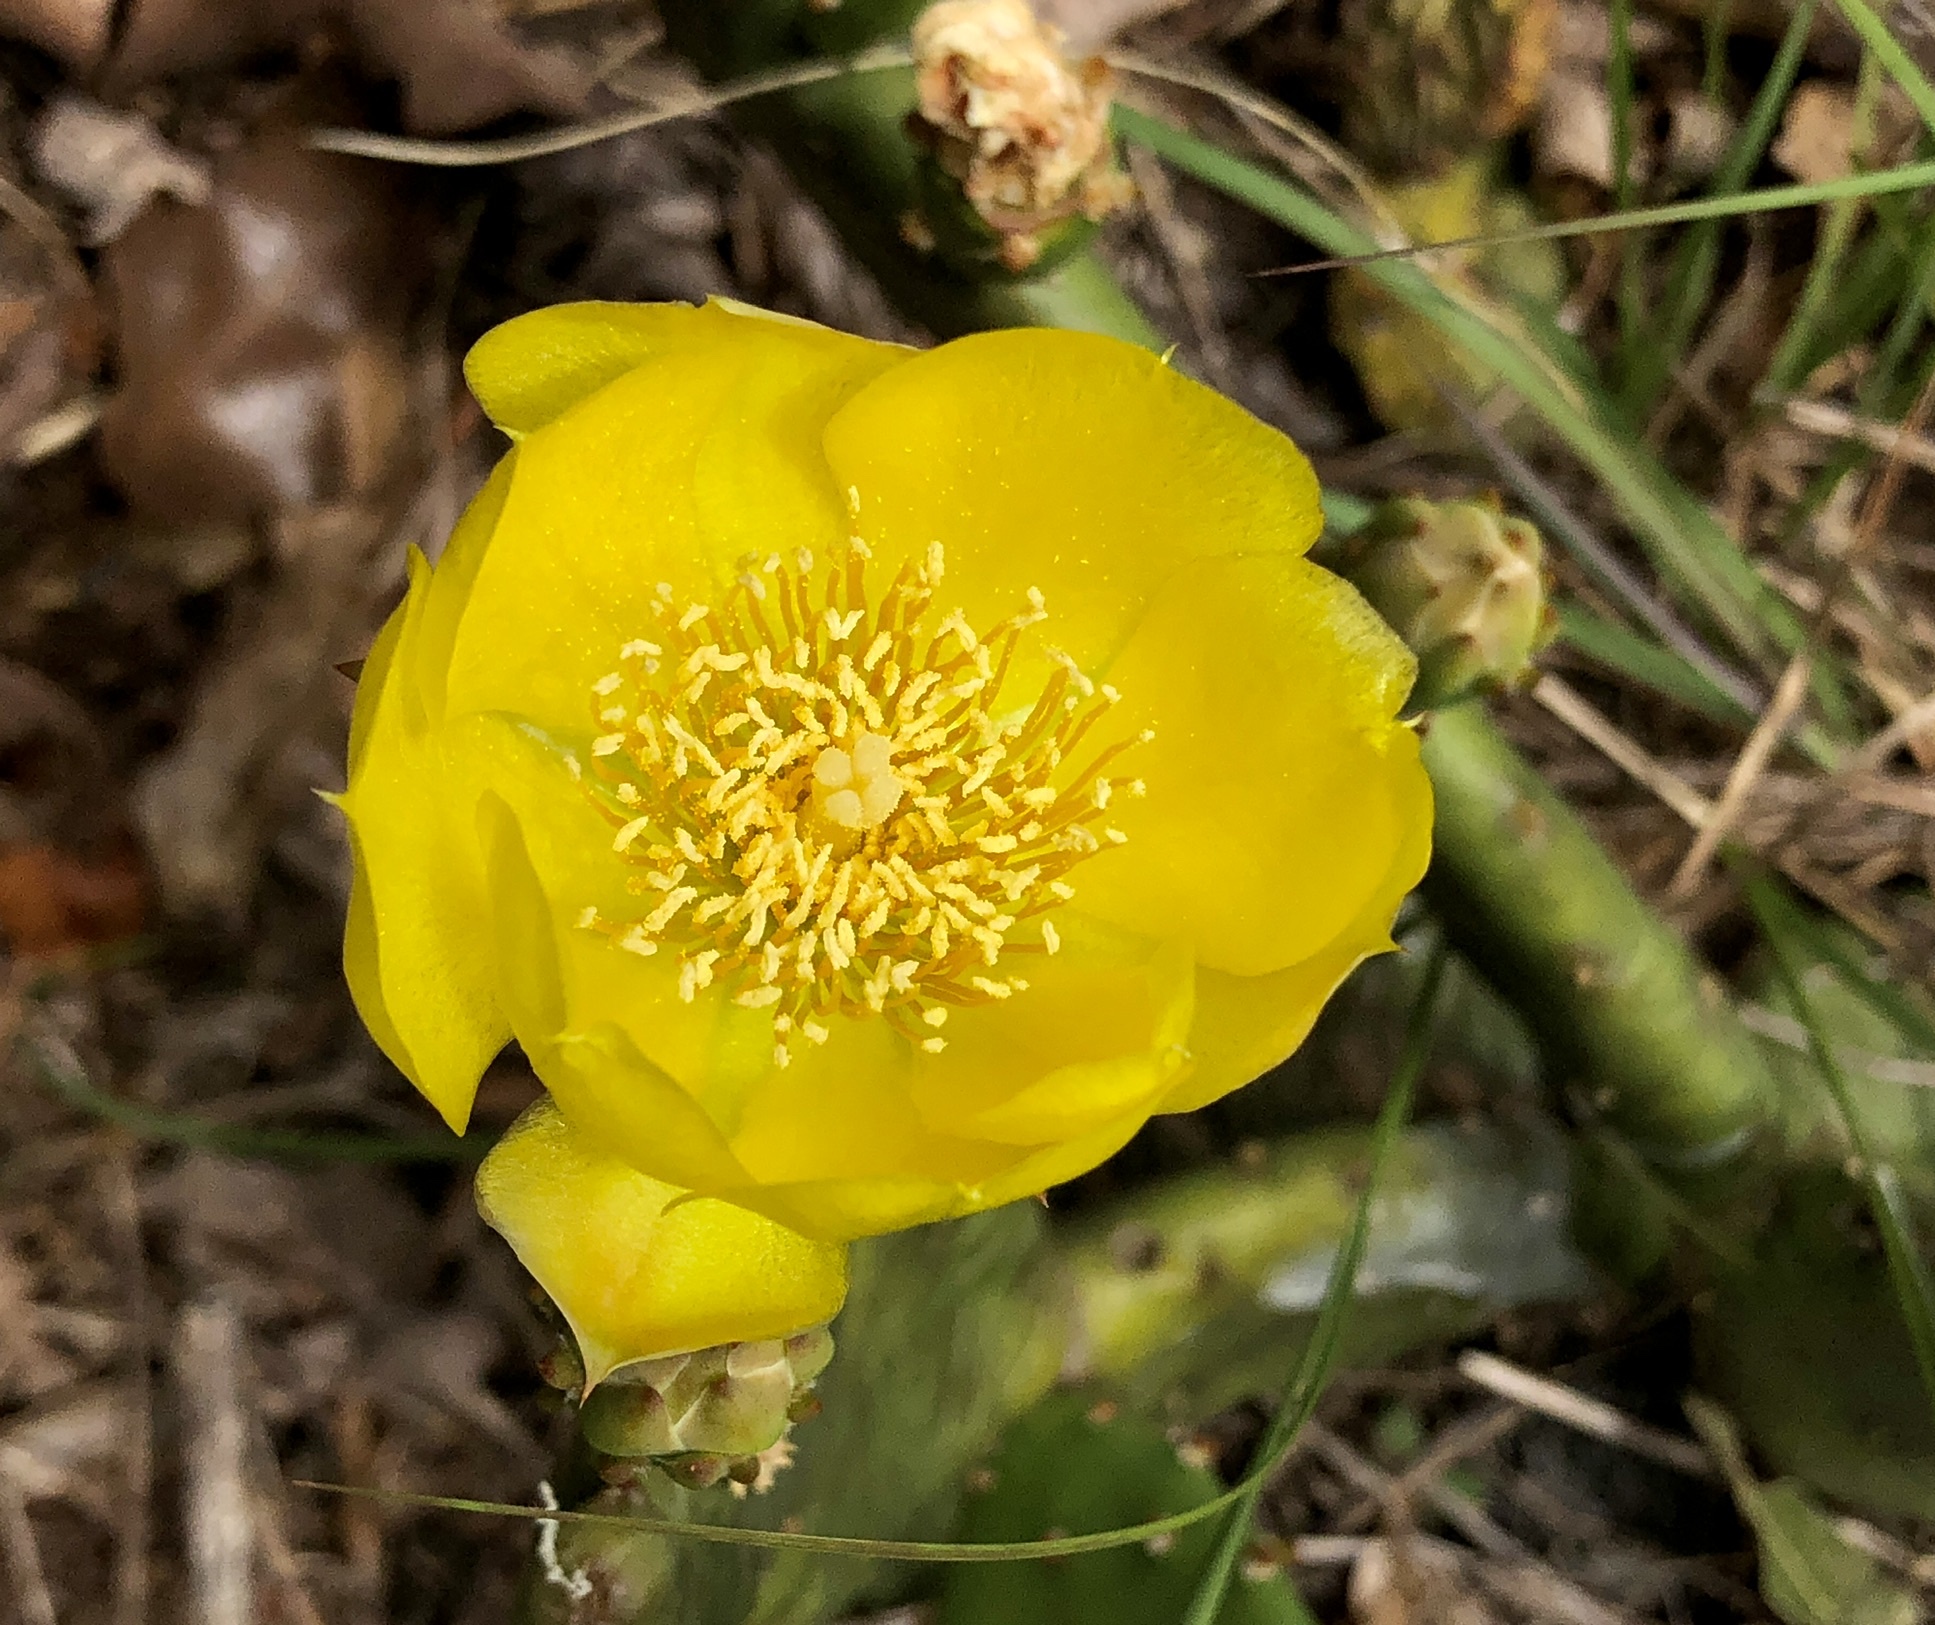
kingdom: Plantae
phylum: Tracheophyta
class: Magnoliopsida
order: Caryophyllales
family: Cactaceae
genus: Opuntia
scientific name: Opuntia mesacantha
